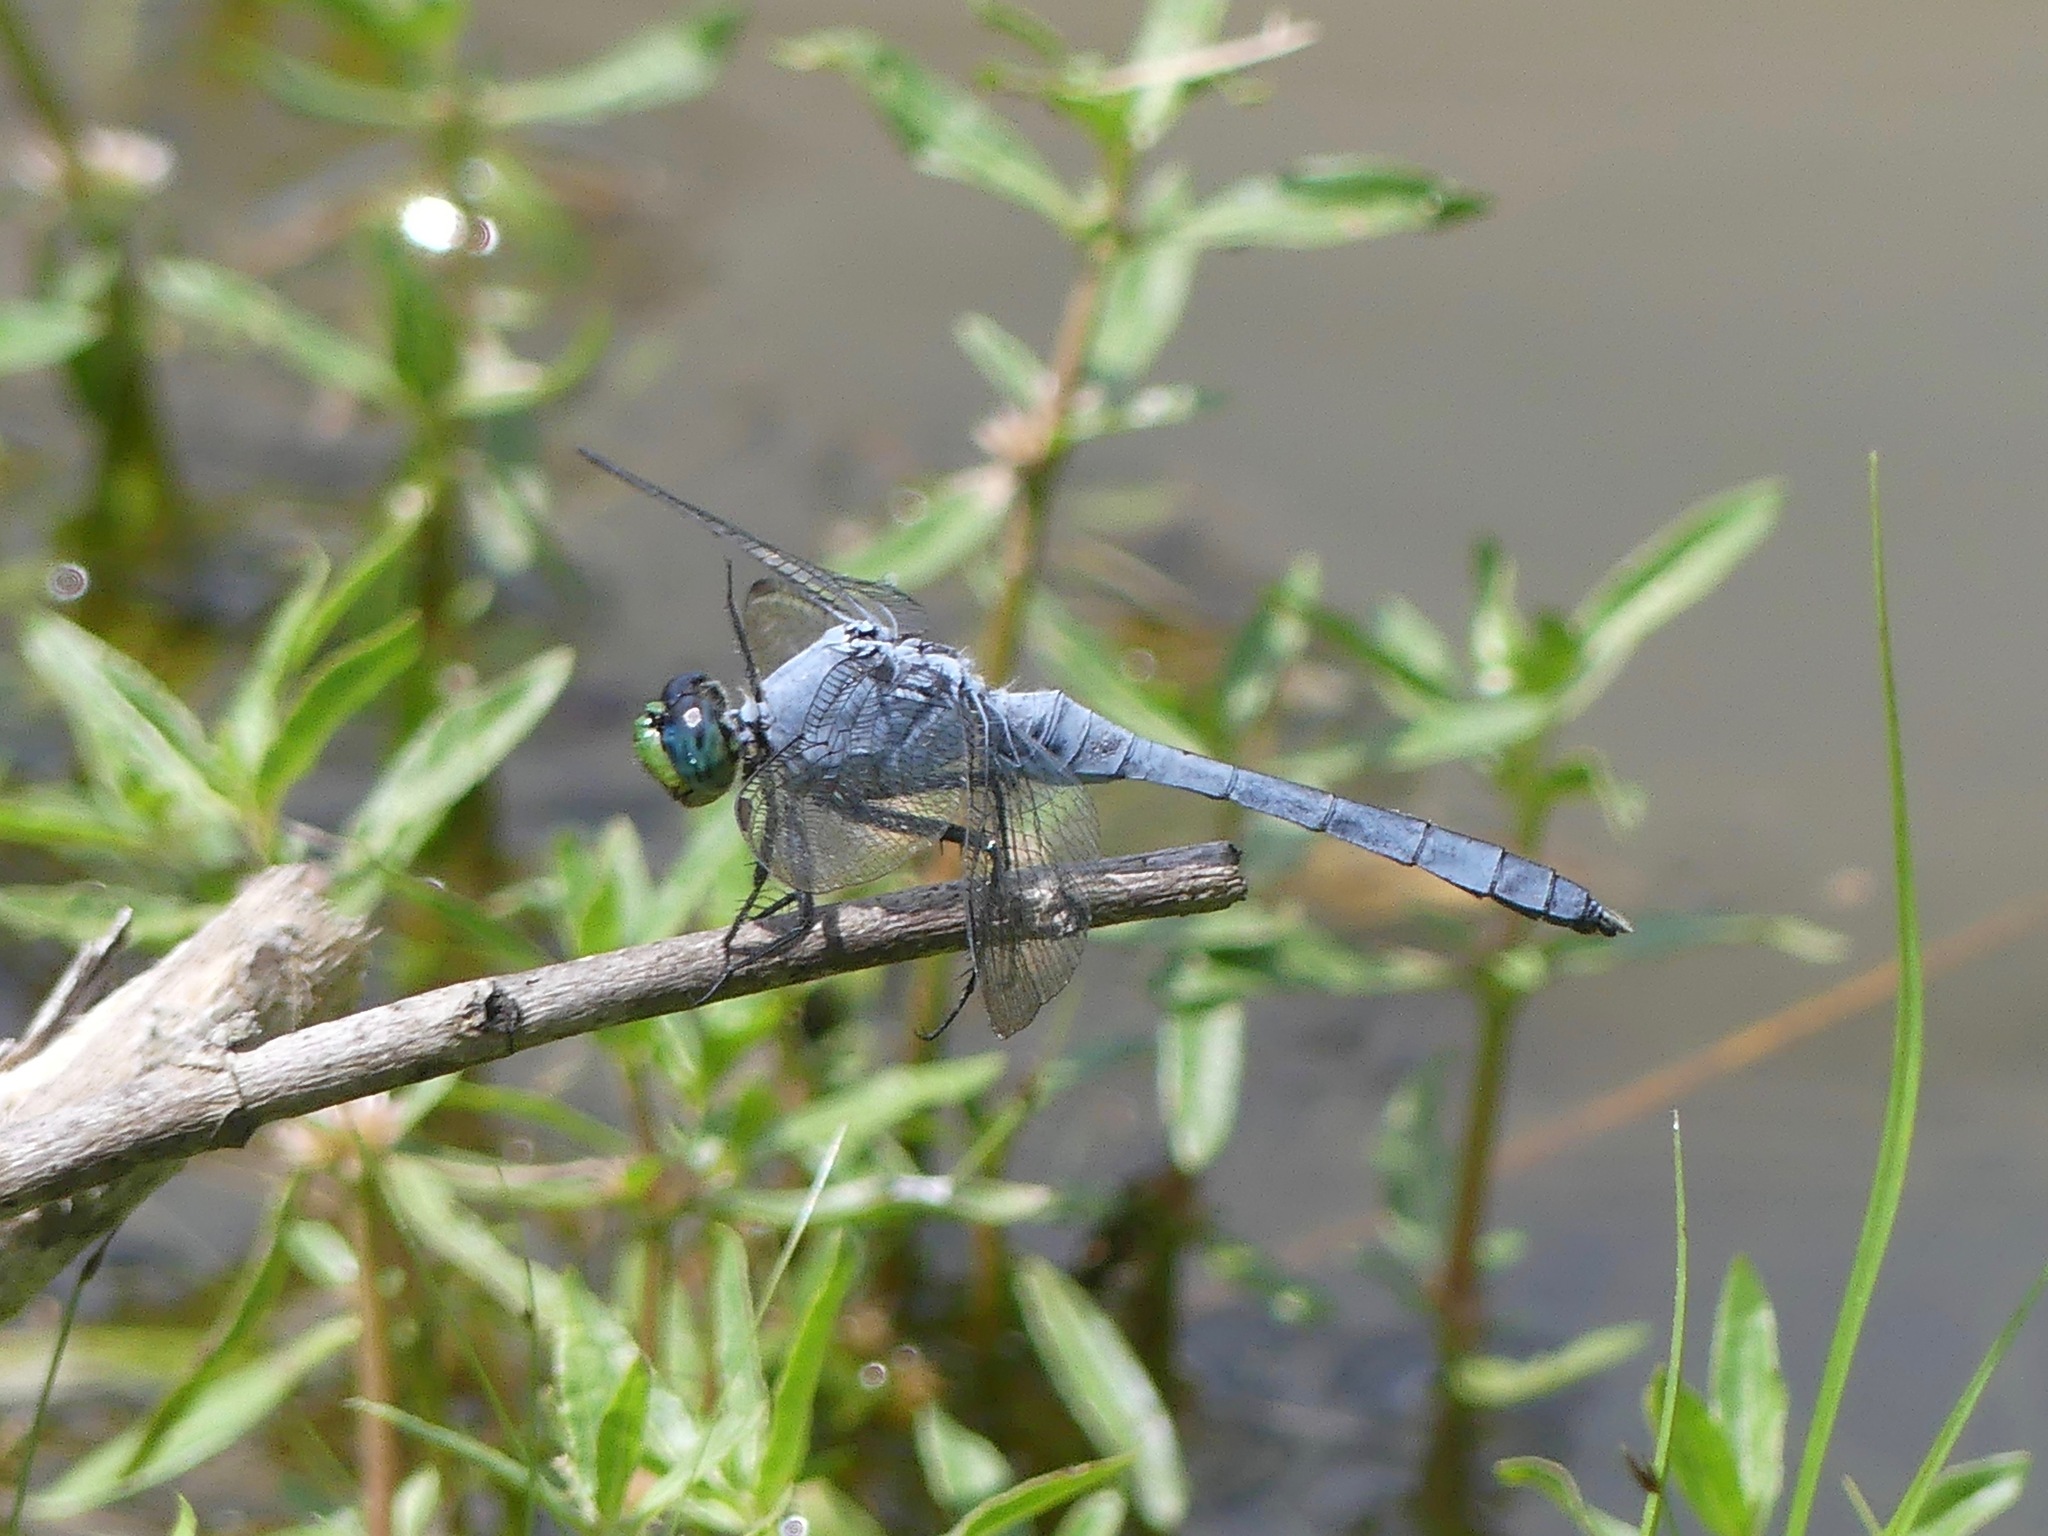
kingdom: Animalia
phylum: Arthropoda
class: Insecta
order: Odonata
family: Libellulidae
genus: Erythemis
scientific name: Erythemis simplicicollis
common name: Eastern pondhawk
